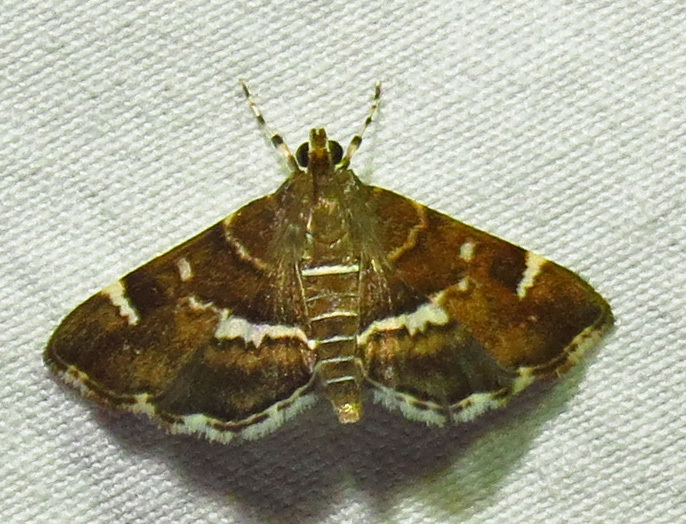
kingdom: Animalia
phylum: Arthropoda
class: Insecta
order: Lepidoptera
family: Crambidae
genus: Hymenia
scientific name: Hymenia perspectalis
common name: Spotted beet webworm
